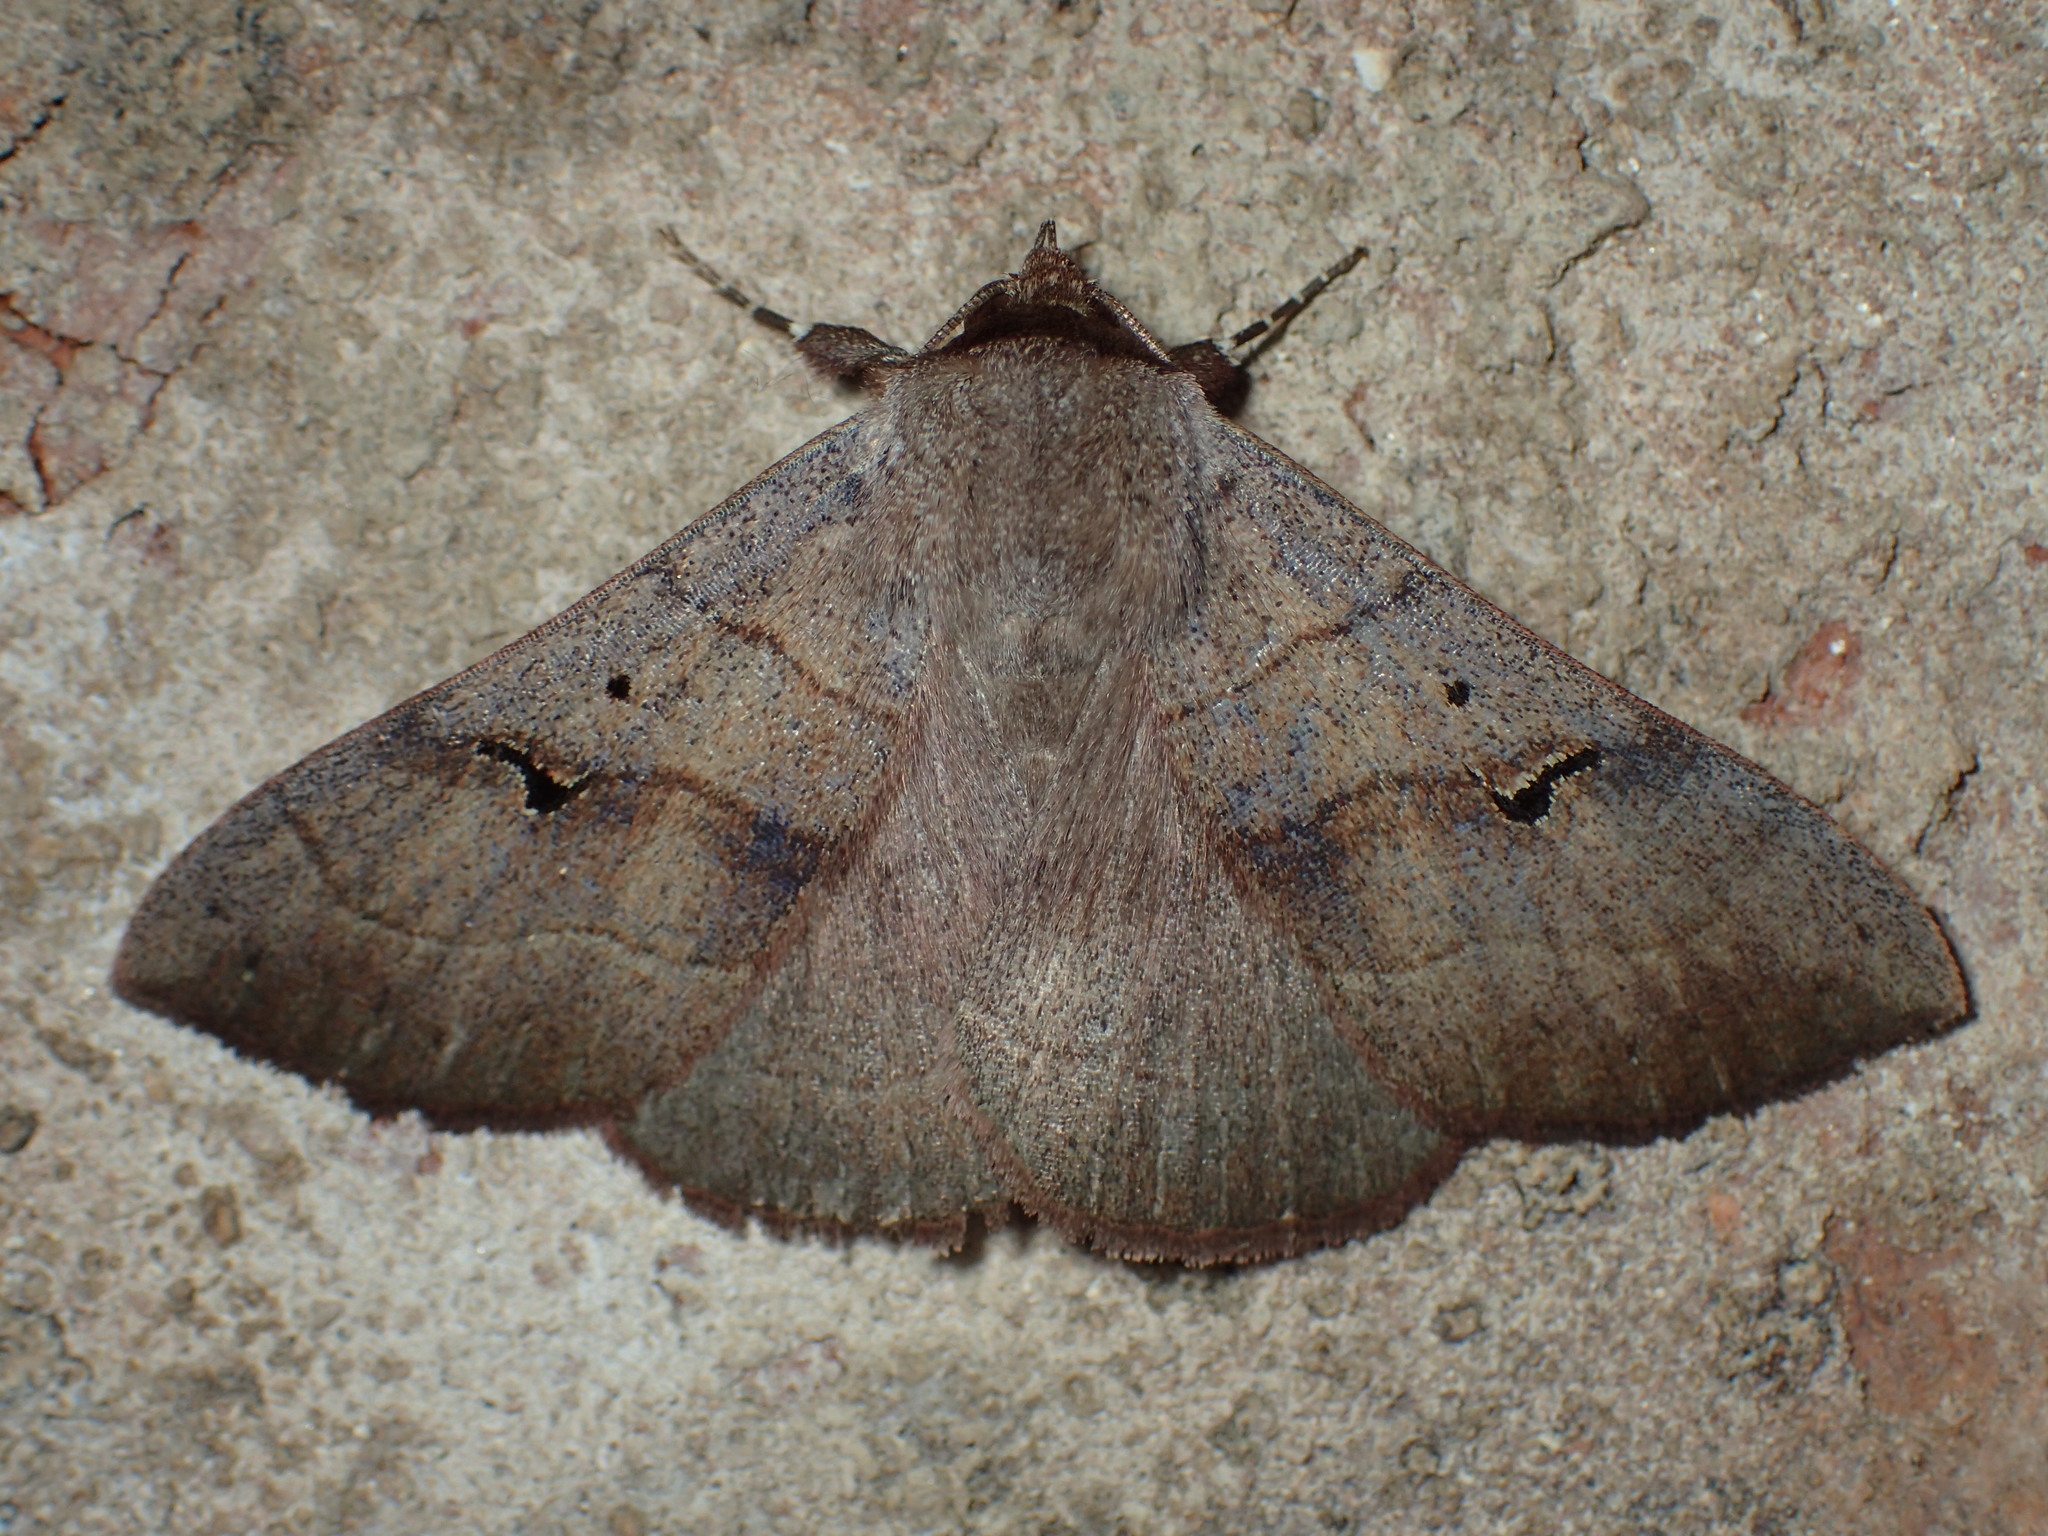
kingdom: Animalia
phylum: Arthropoda
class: Insecta
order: Lepidoptera
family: Erebidae
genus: Panopoda
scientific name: Panopoda carneicosta
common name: Brown panopoda moth
